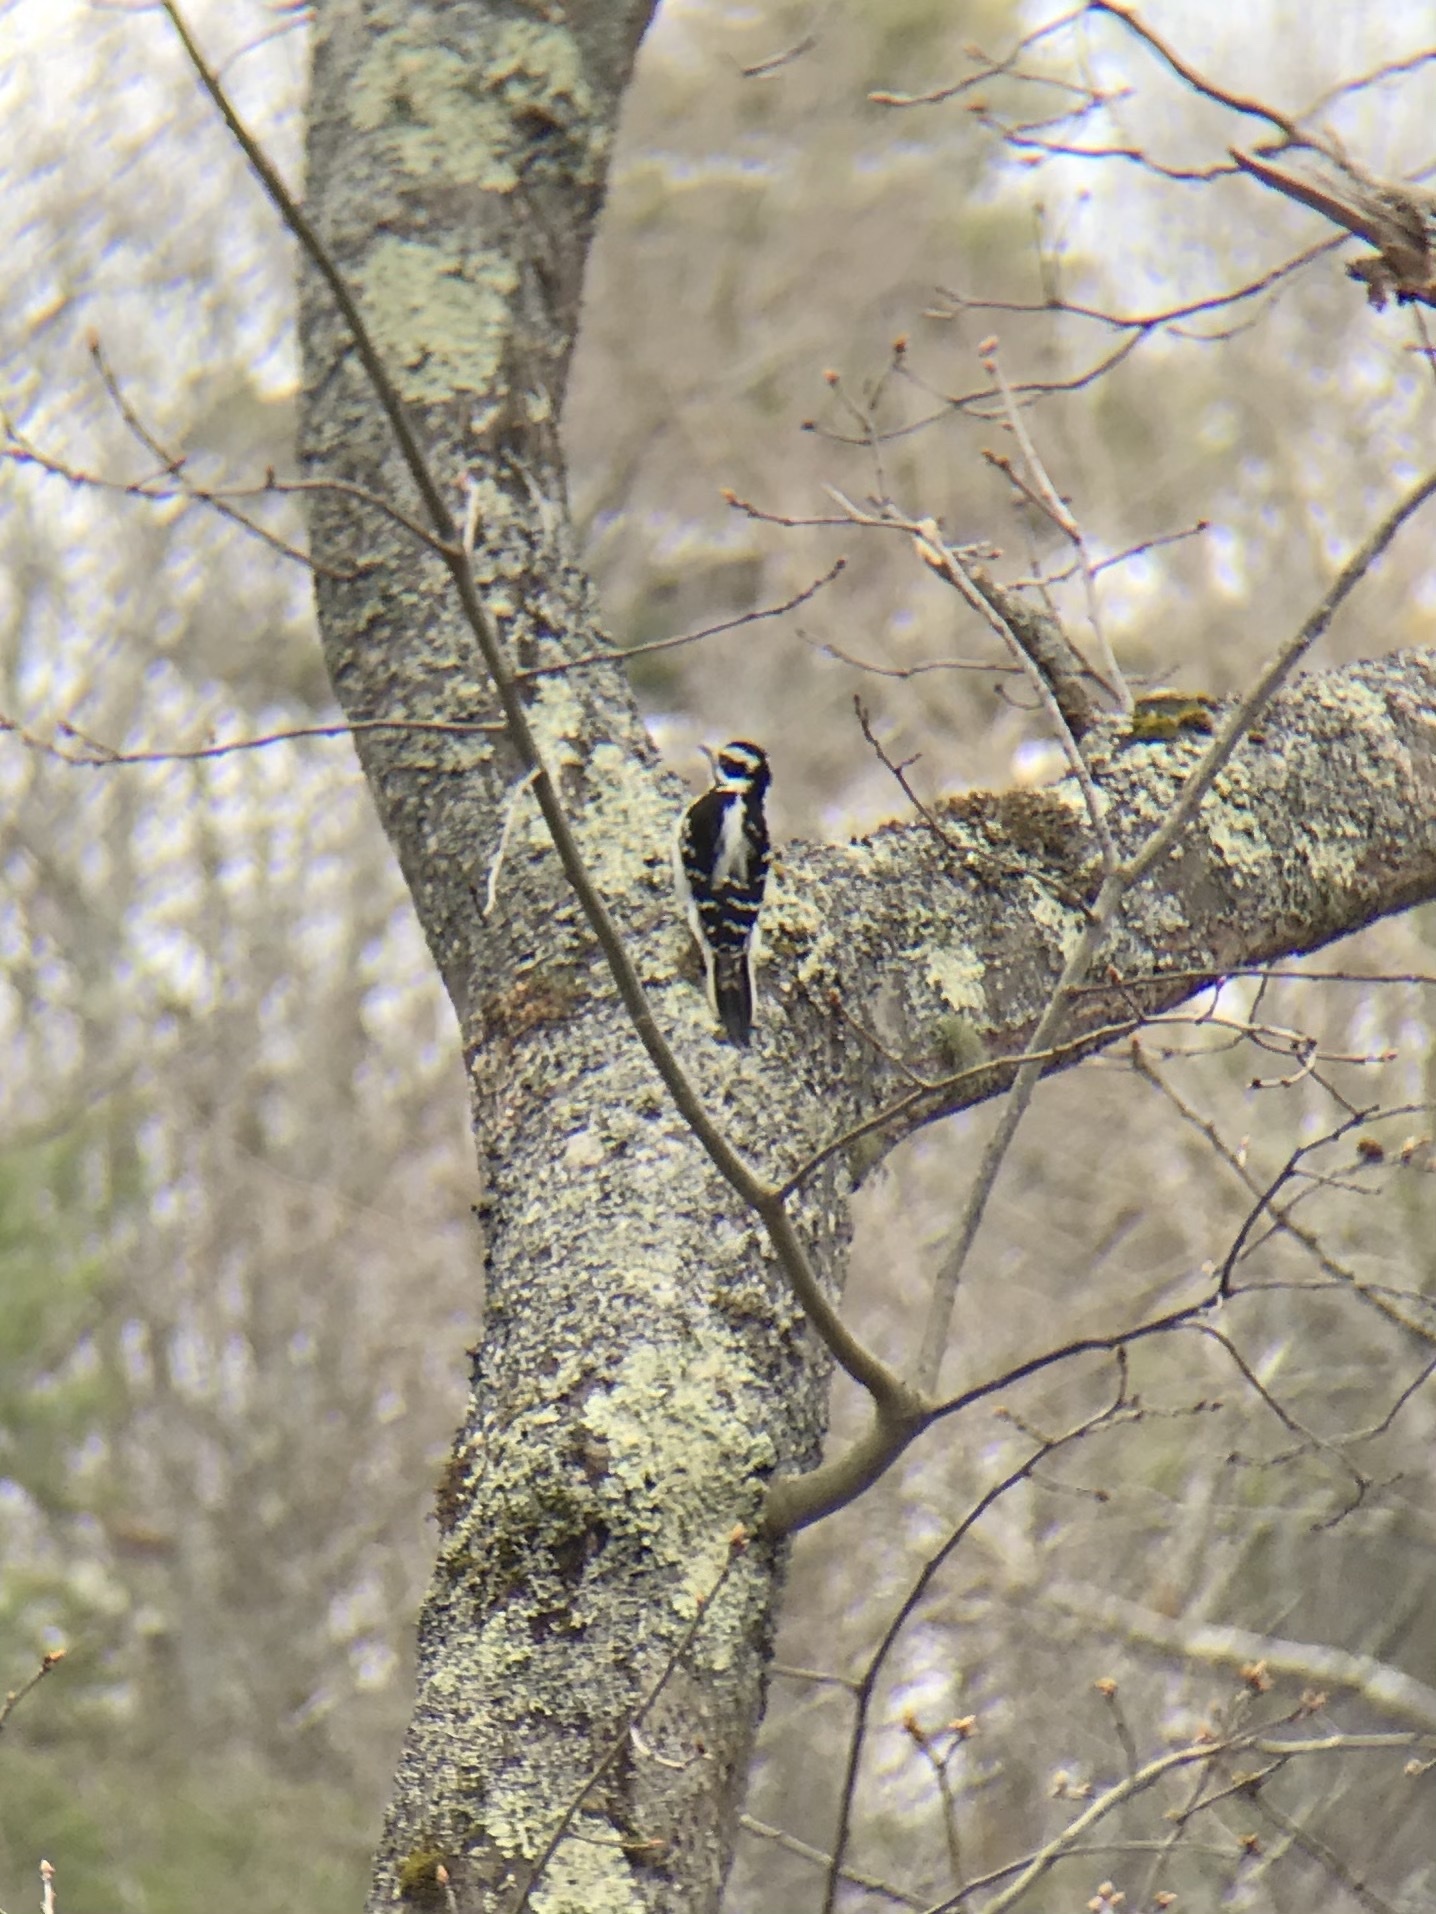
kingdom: Animalia
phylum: Chordata
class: Aves
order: Piciformes
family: Picidae
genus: Dryobates
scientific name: Dryobates pubescens
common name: Downy woodpecker
